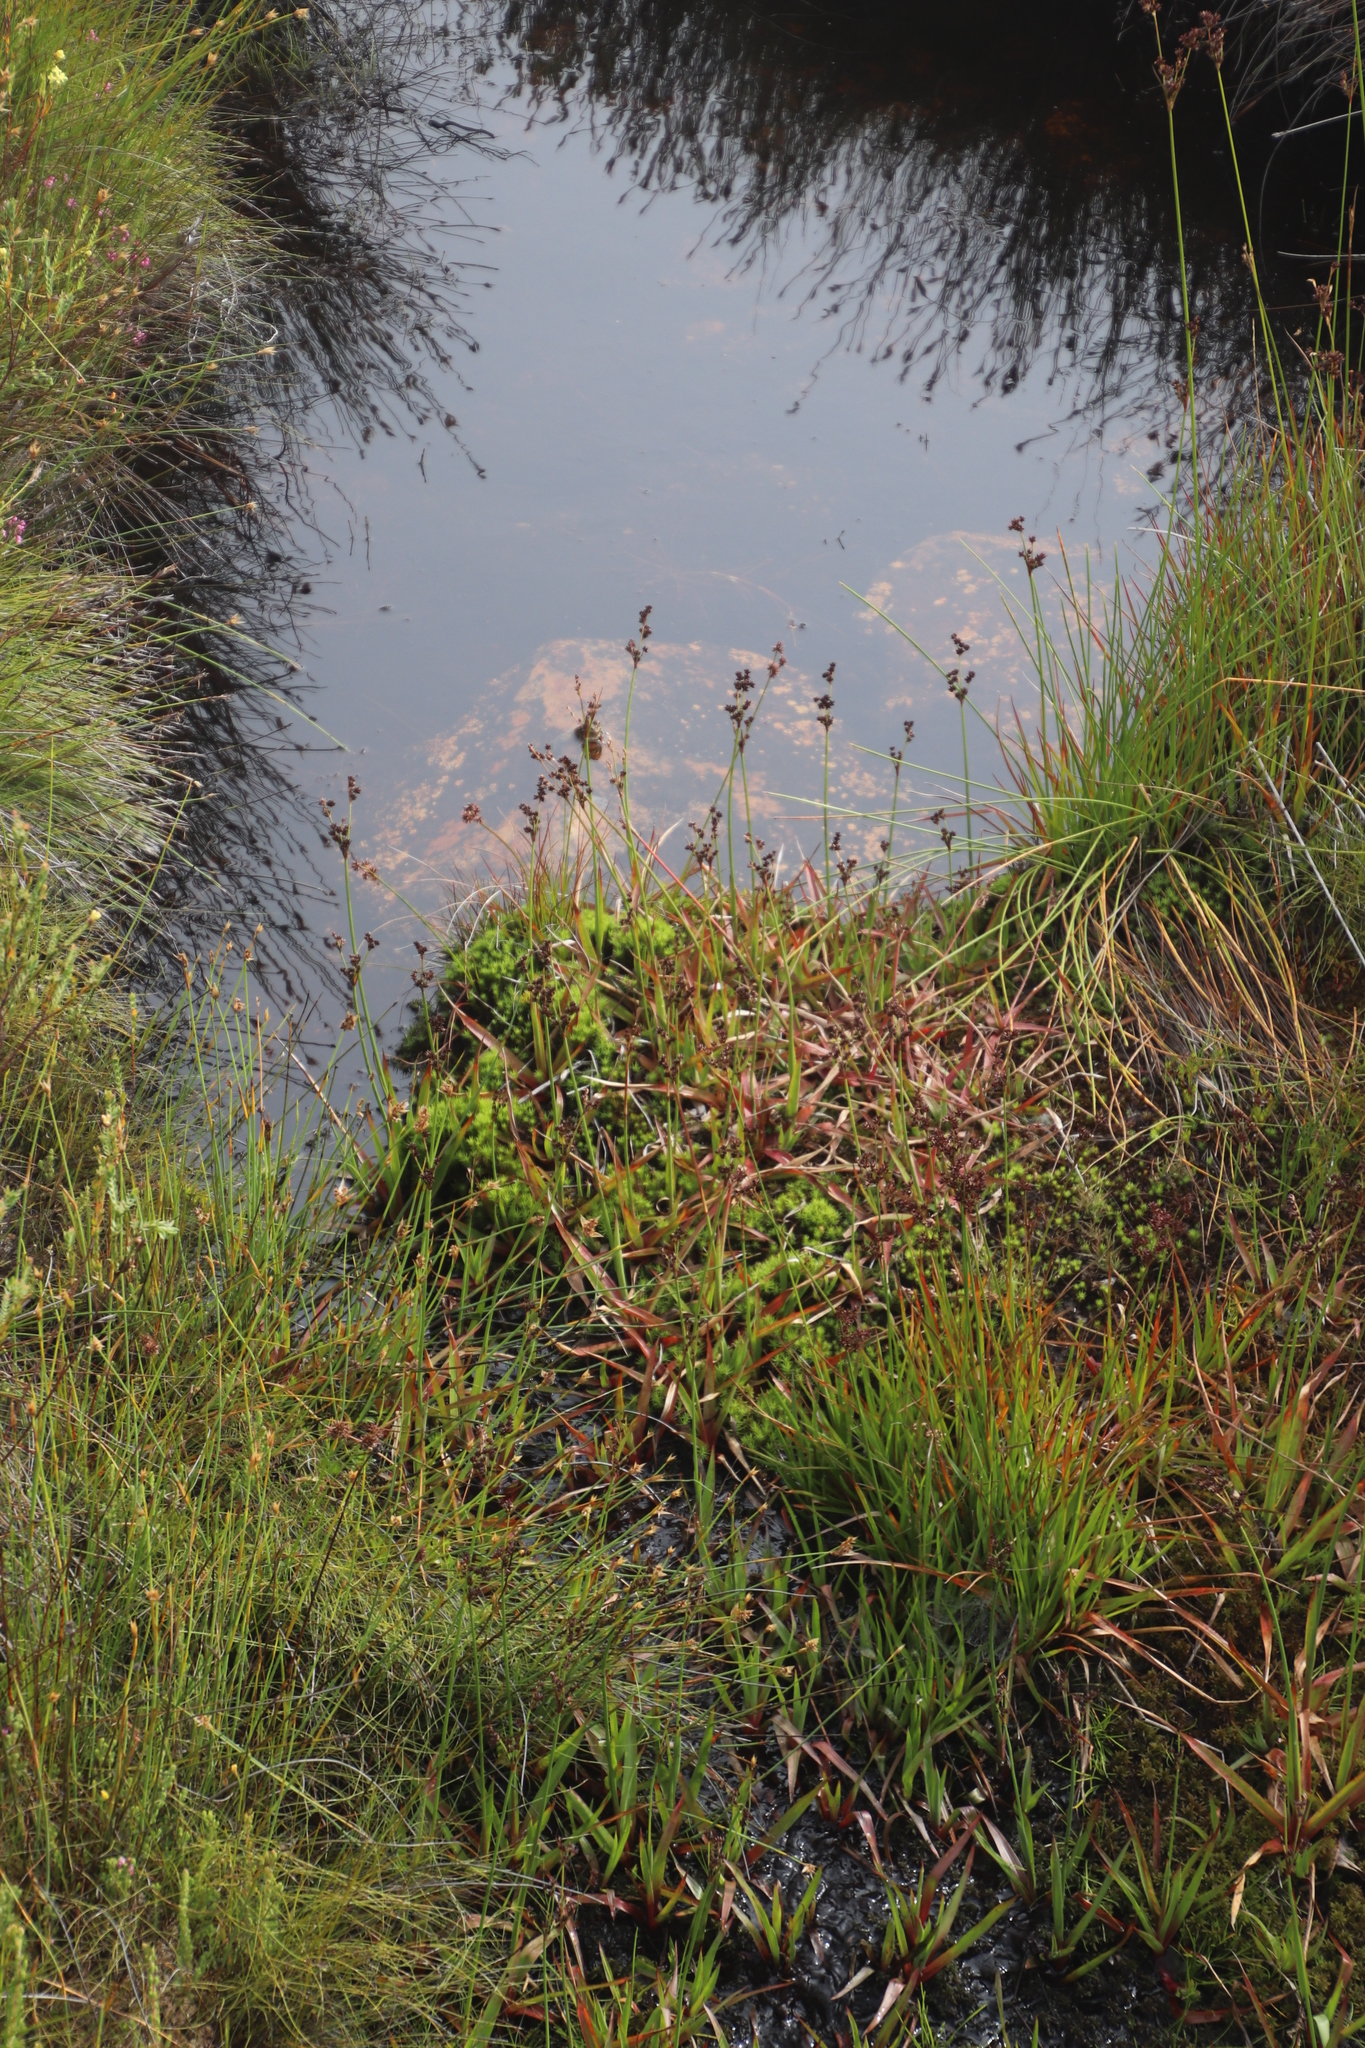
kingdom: Plantae
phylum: Tracheophyta
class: Liliopsida
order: Poales
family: Juncaceae
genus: Juncus
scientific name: Juncus lomatophyllus
